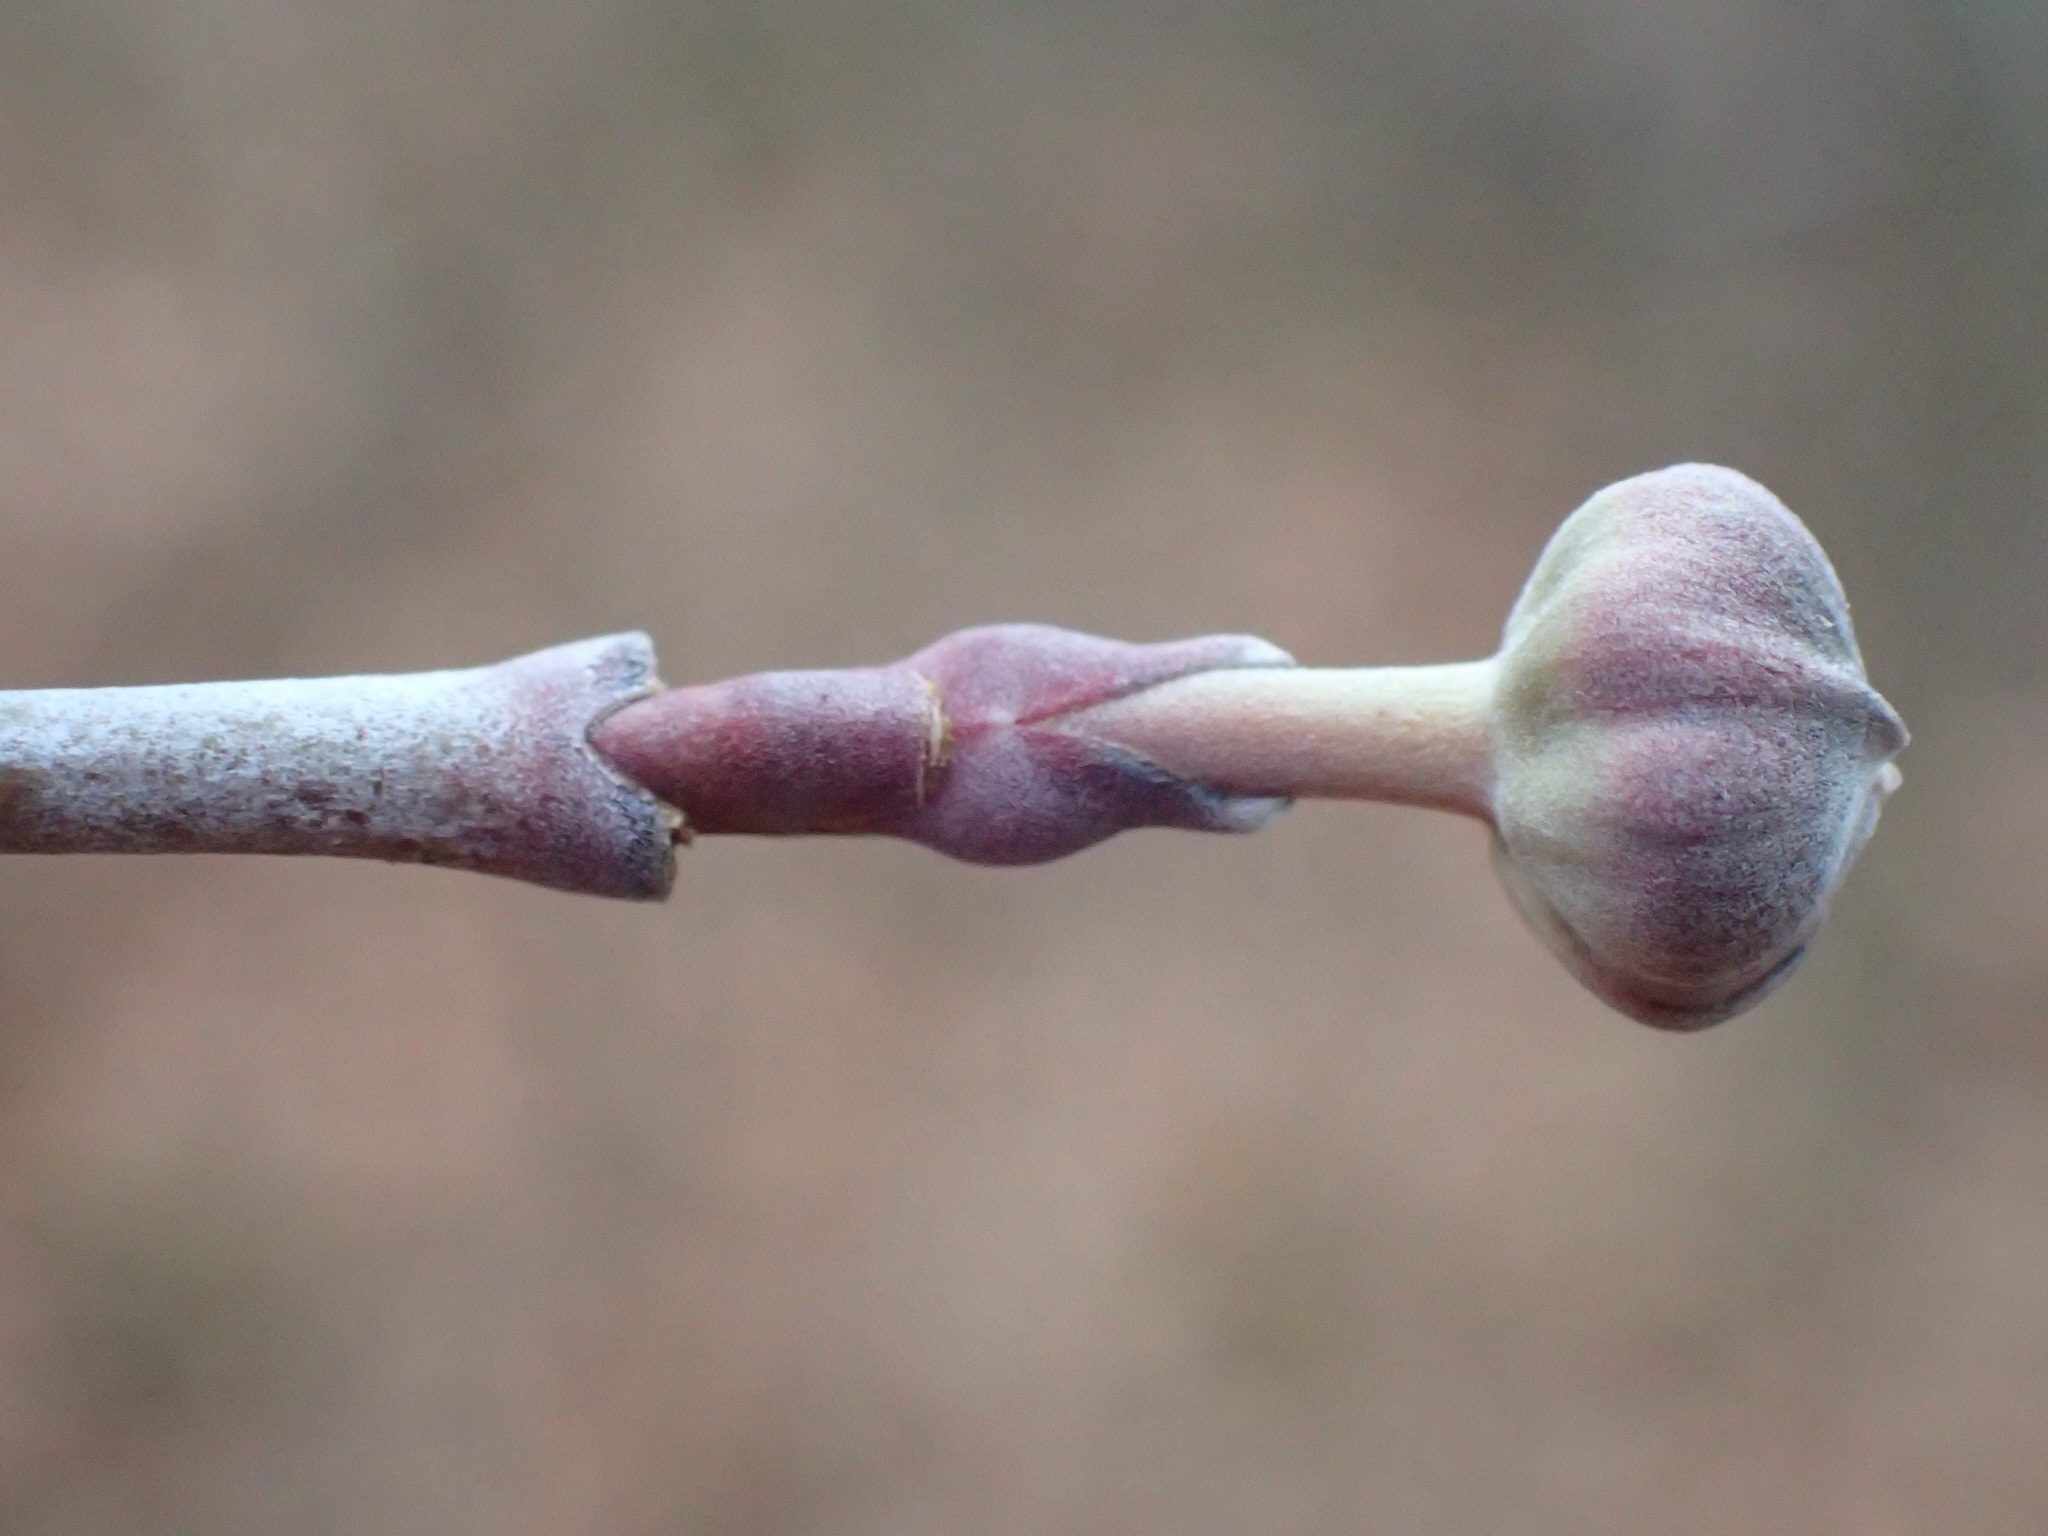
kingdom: Plantae
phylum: Tracheophyta
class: Magnoliopsida
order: Cornales
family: Cornaceae
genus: Cornus
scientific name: Cornus florida
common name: Flowering dogwood
